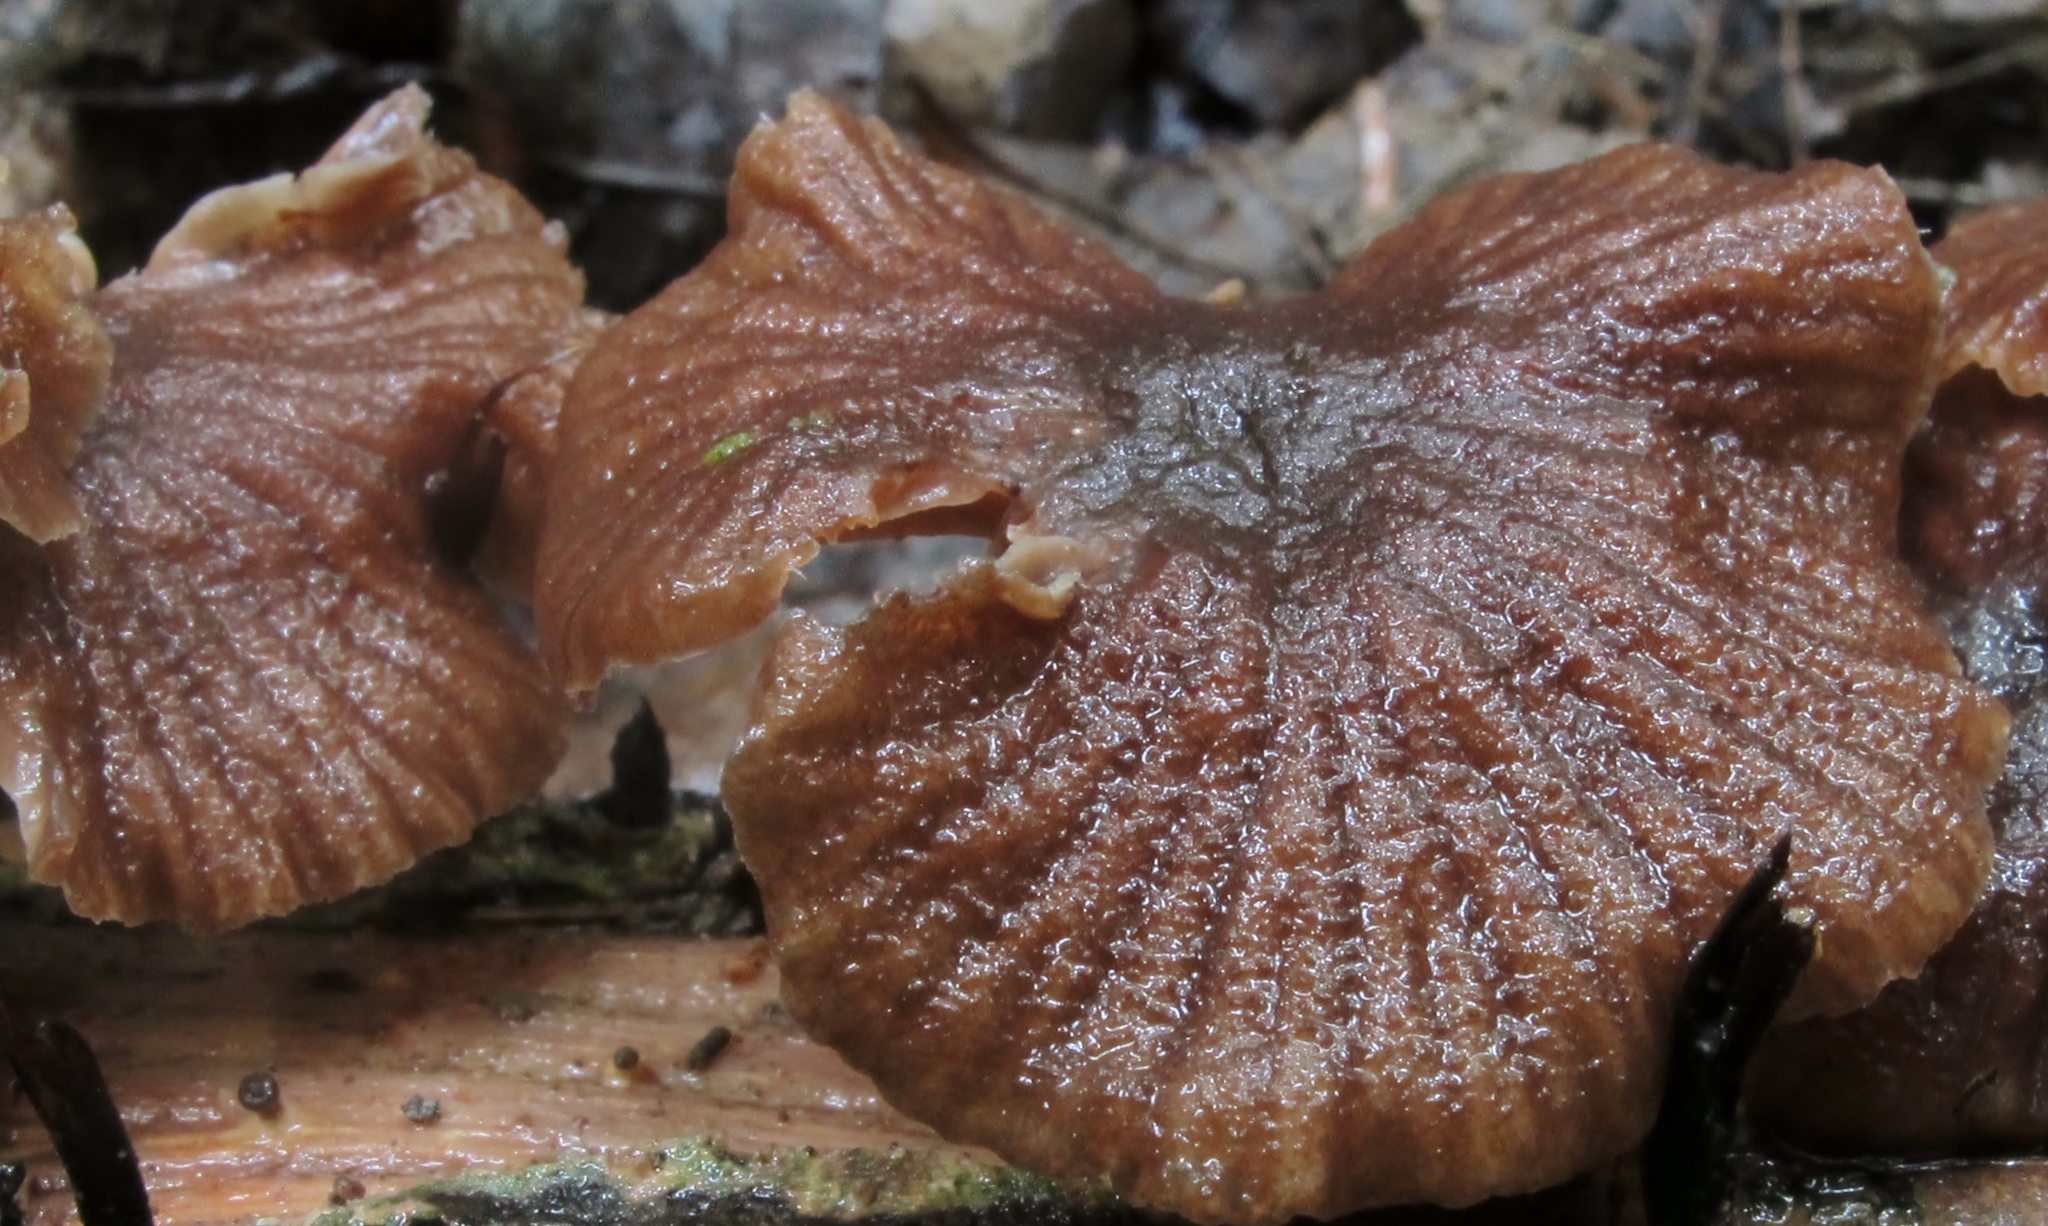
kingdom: Fungi
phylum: Basidiomycota
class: Agaricomycetes
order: Agaricales
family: Omphalotaceae
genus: Gymnopus
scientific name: Gymnopus foetidus
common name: Foetid parachute
